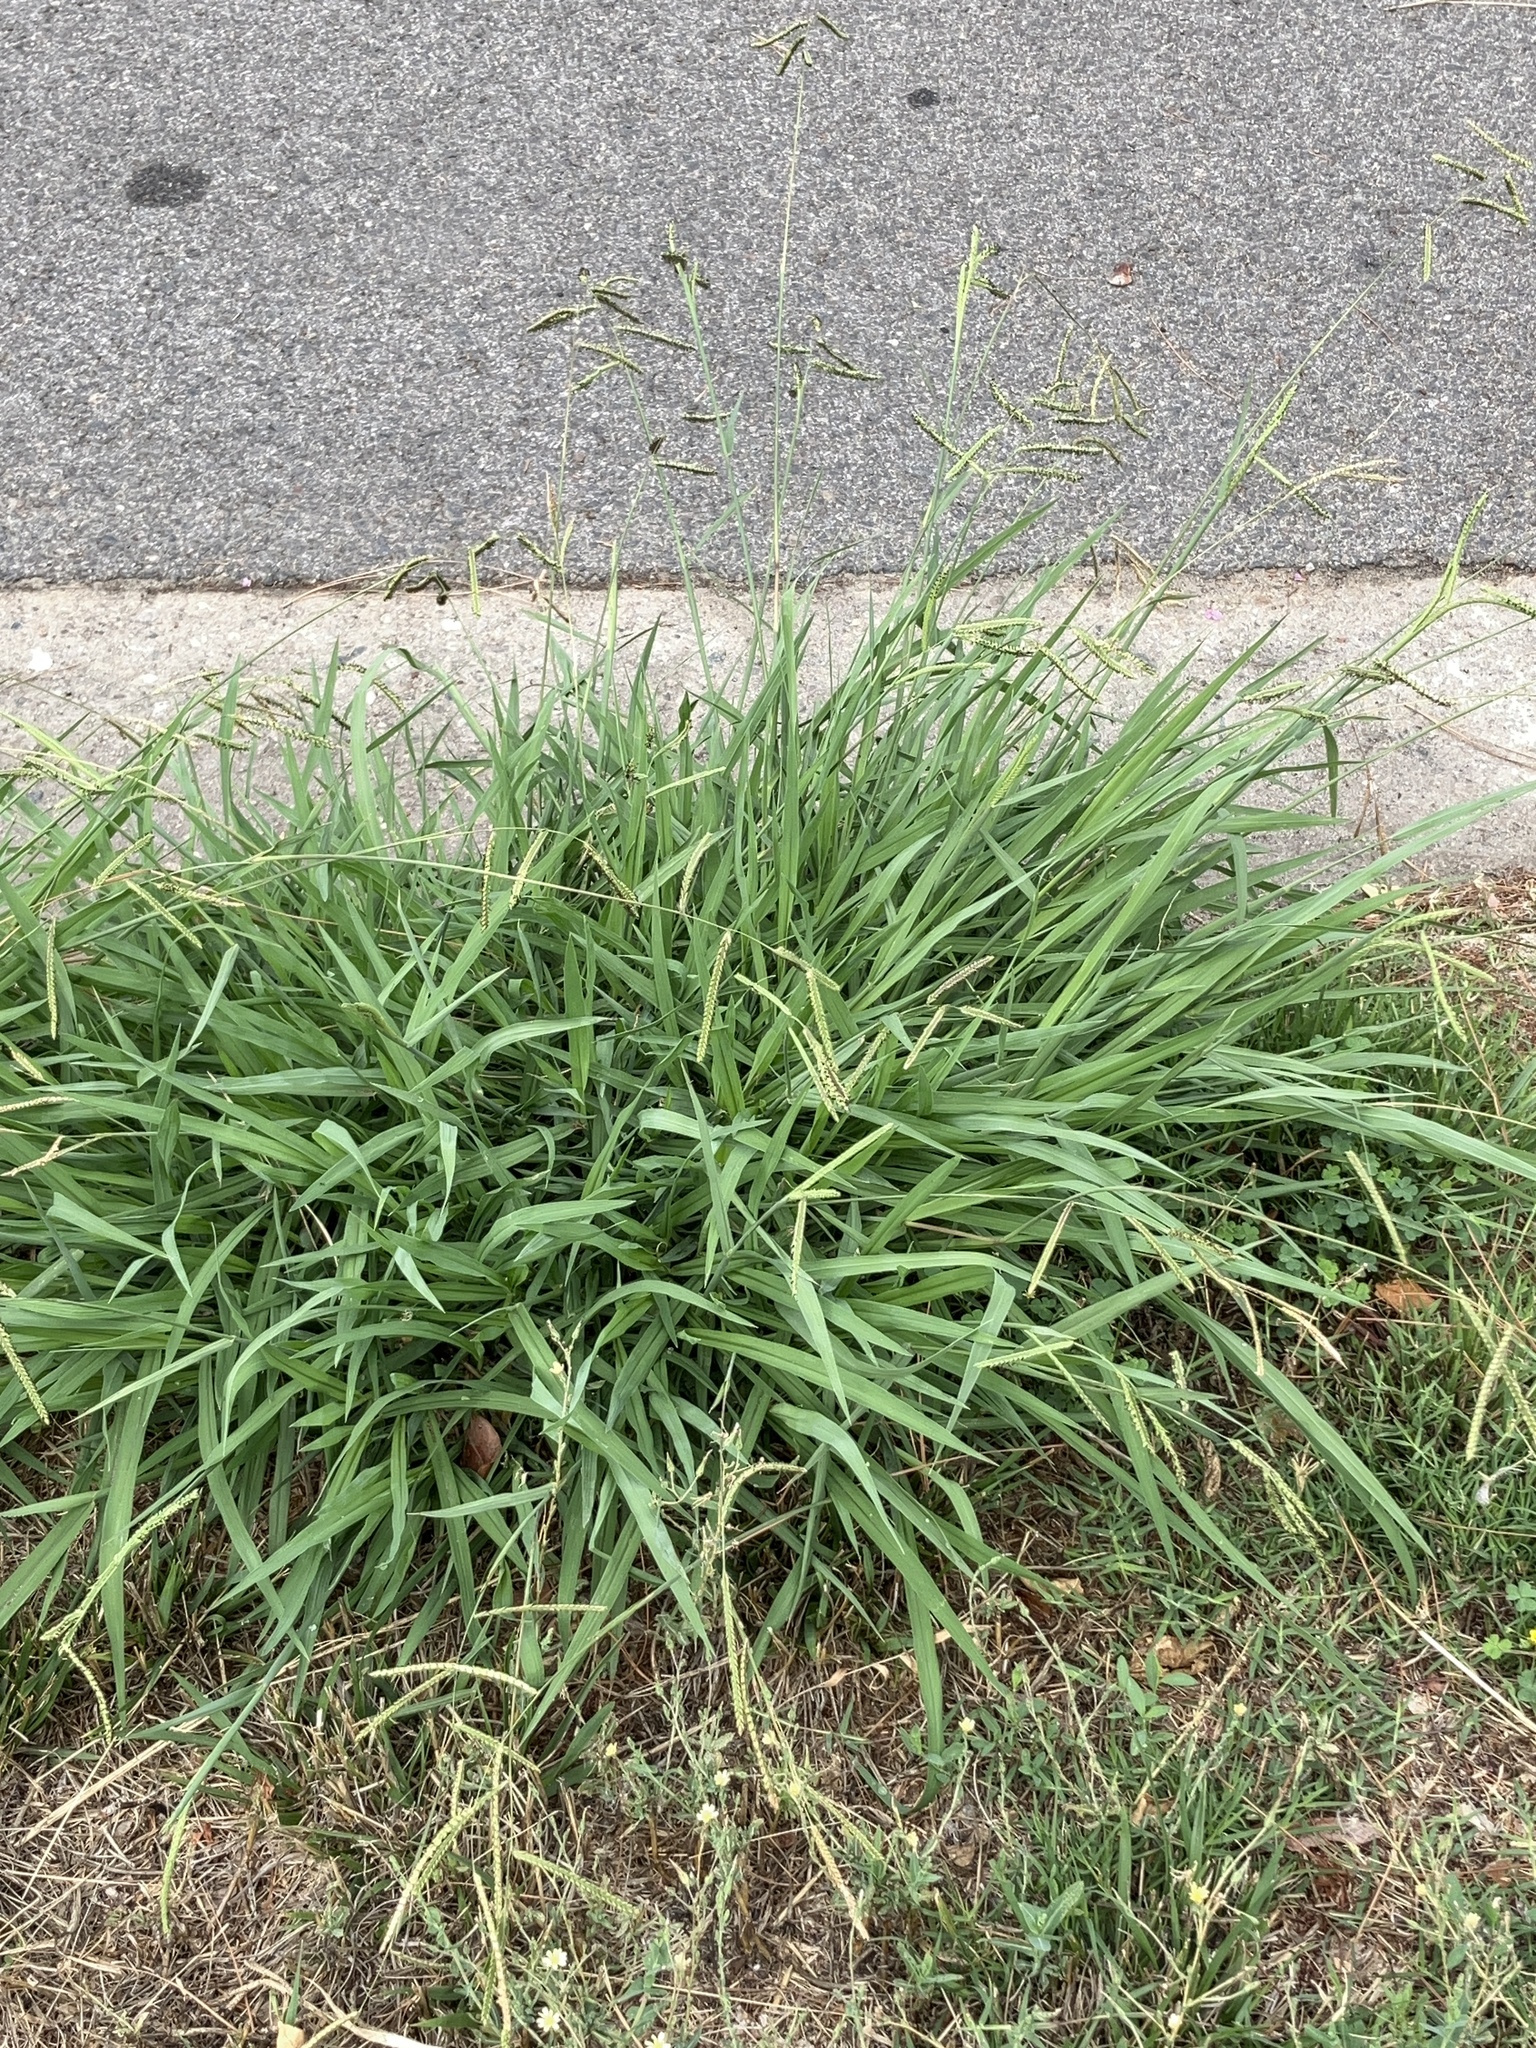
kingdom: Plantae
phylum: Tracheophyta
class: Liliopsida
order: Poales
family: Poaceae
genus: Paspalum
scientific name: Paspalum dilatatum
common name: Dallisgrass
